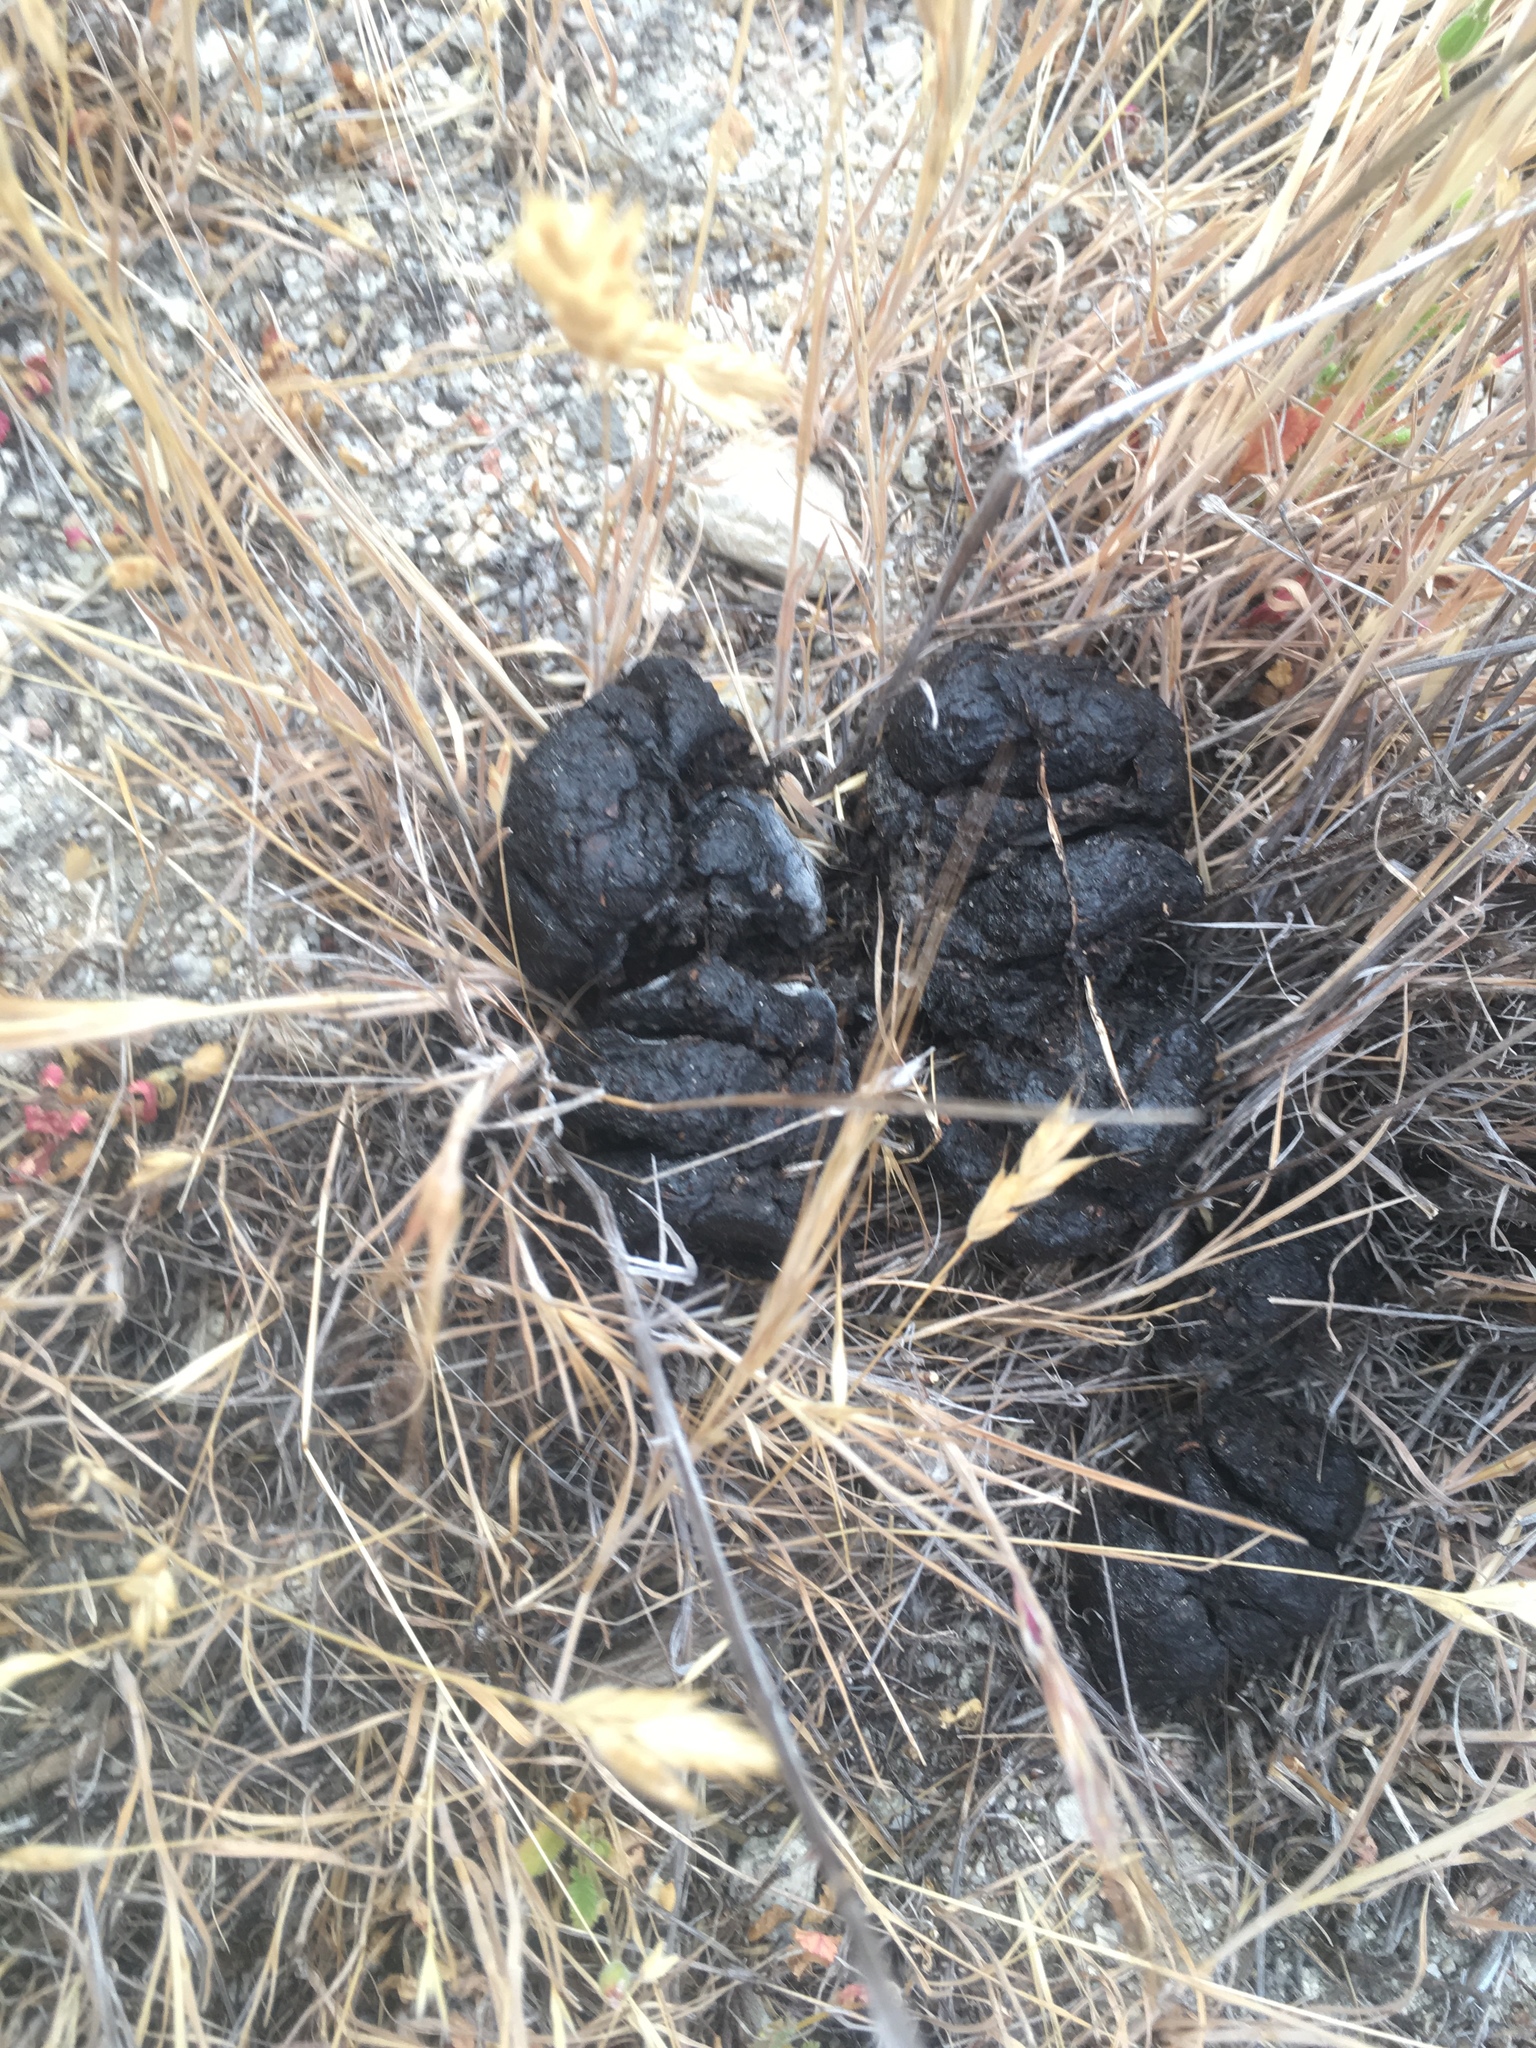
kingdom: Animalia
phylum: Chordata
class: Mammalia
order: Artiodactyla
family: Suidae
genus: Sus
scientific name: Sus scrofa
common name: Wild boar
